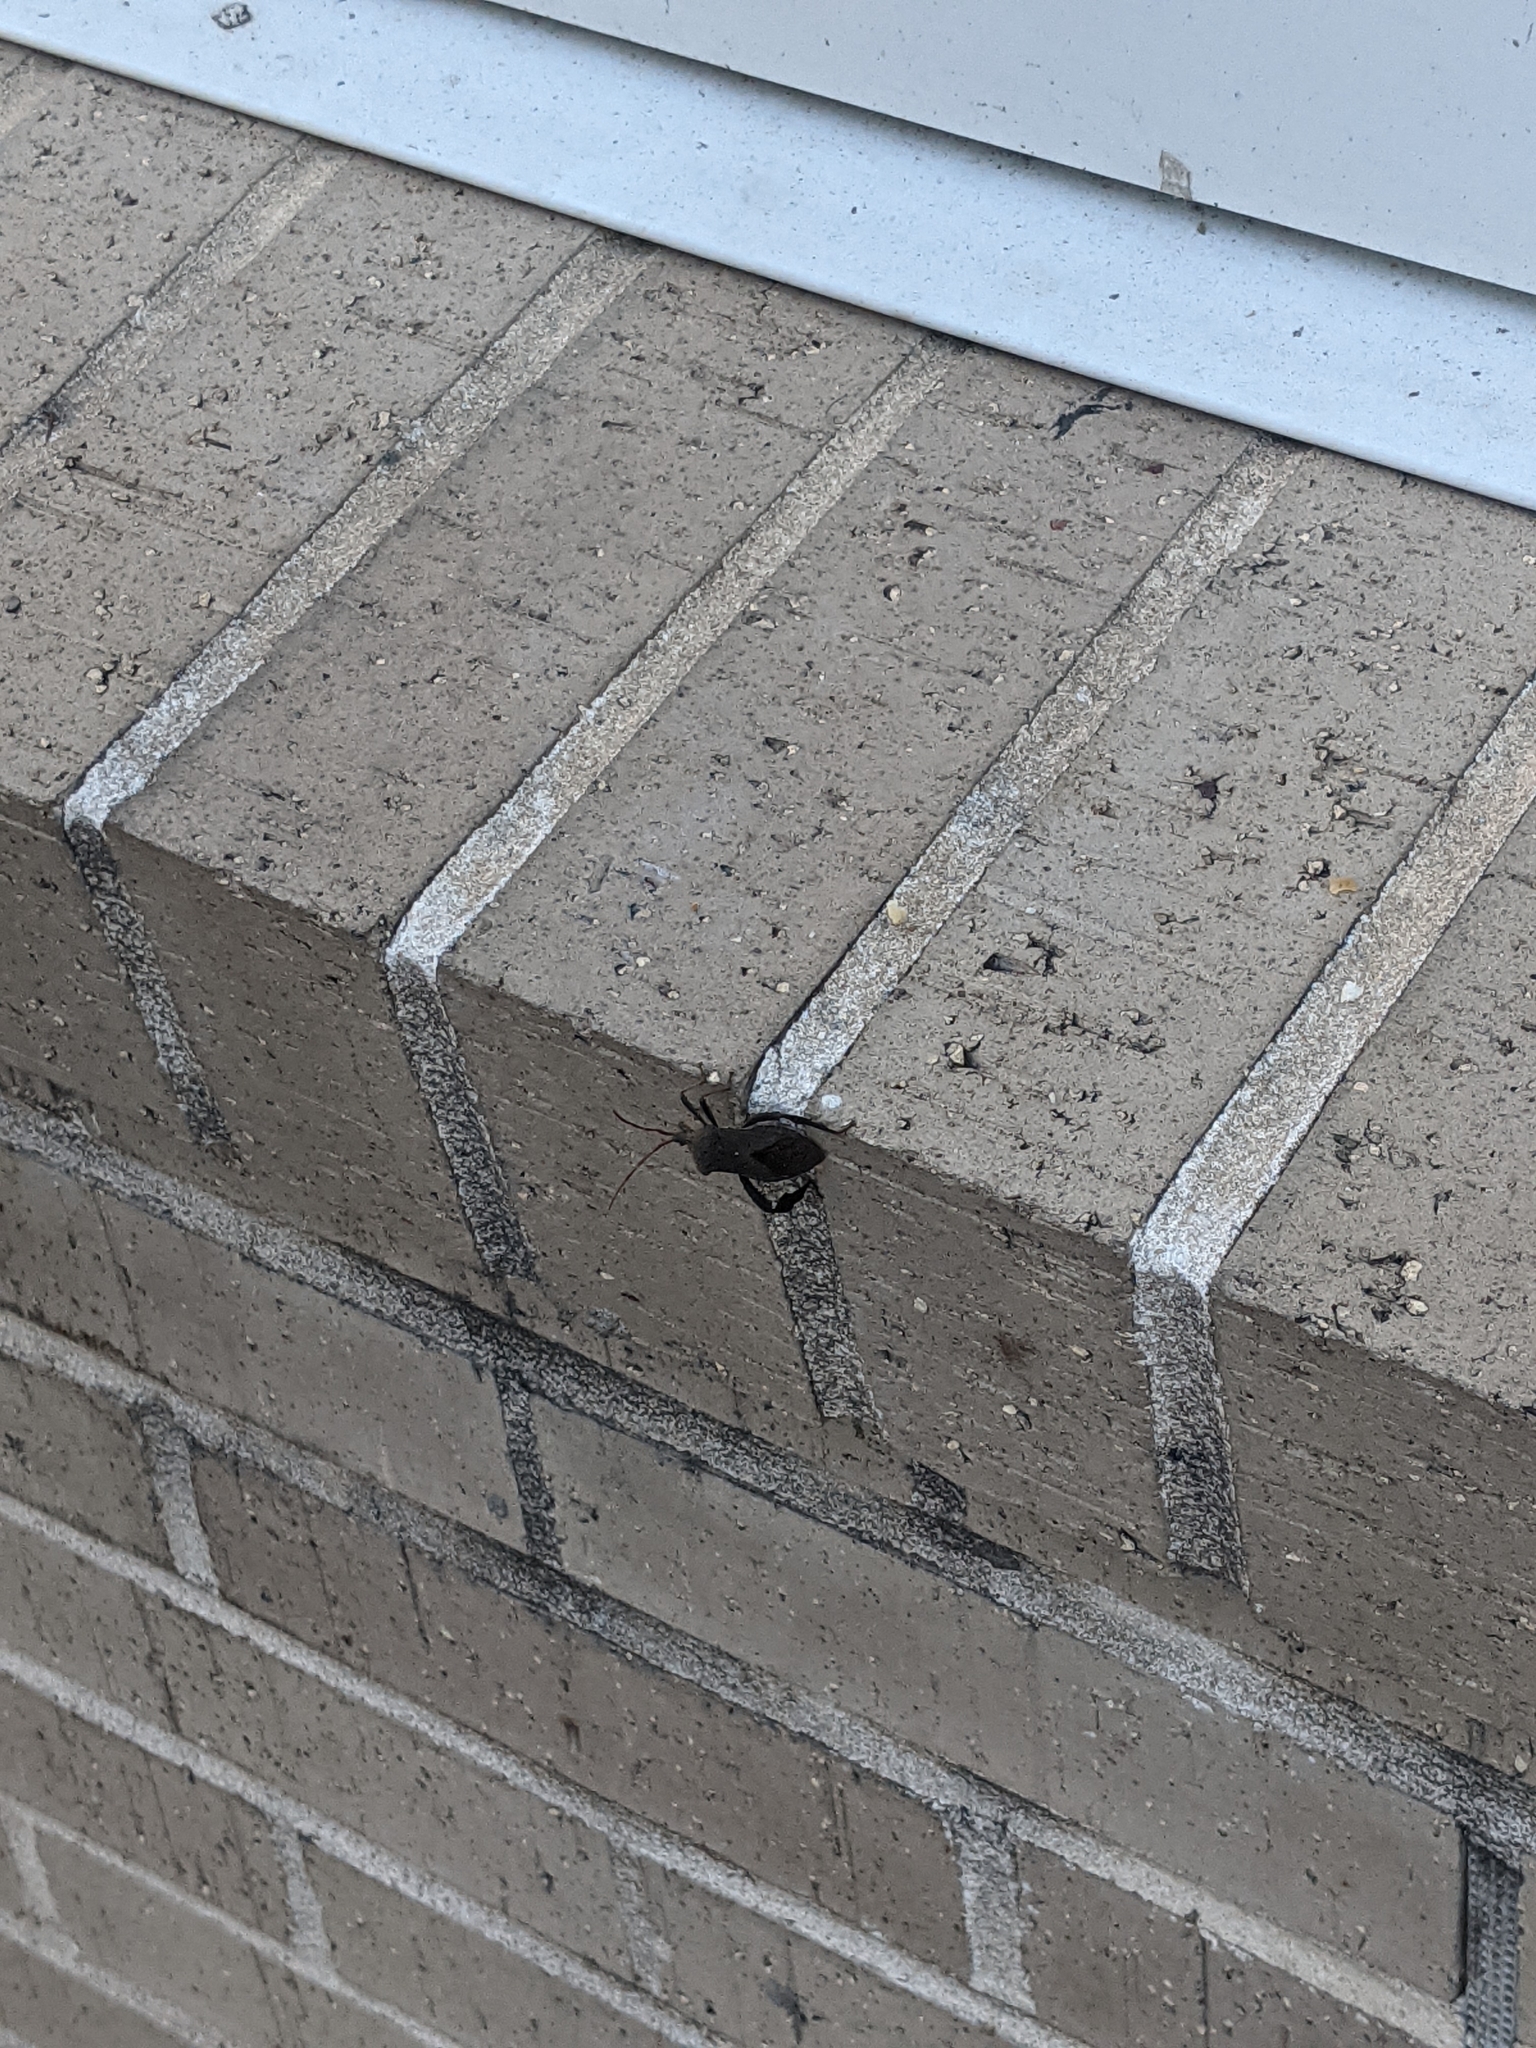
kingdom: Animalia
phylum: Arthropoda
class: Insecta
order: Hemiptera
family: Coreidae
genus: Acanthocephala
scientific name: Acanthocephala femorata
